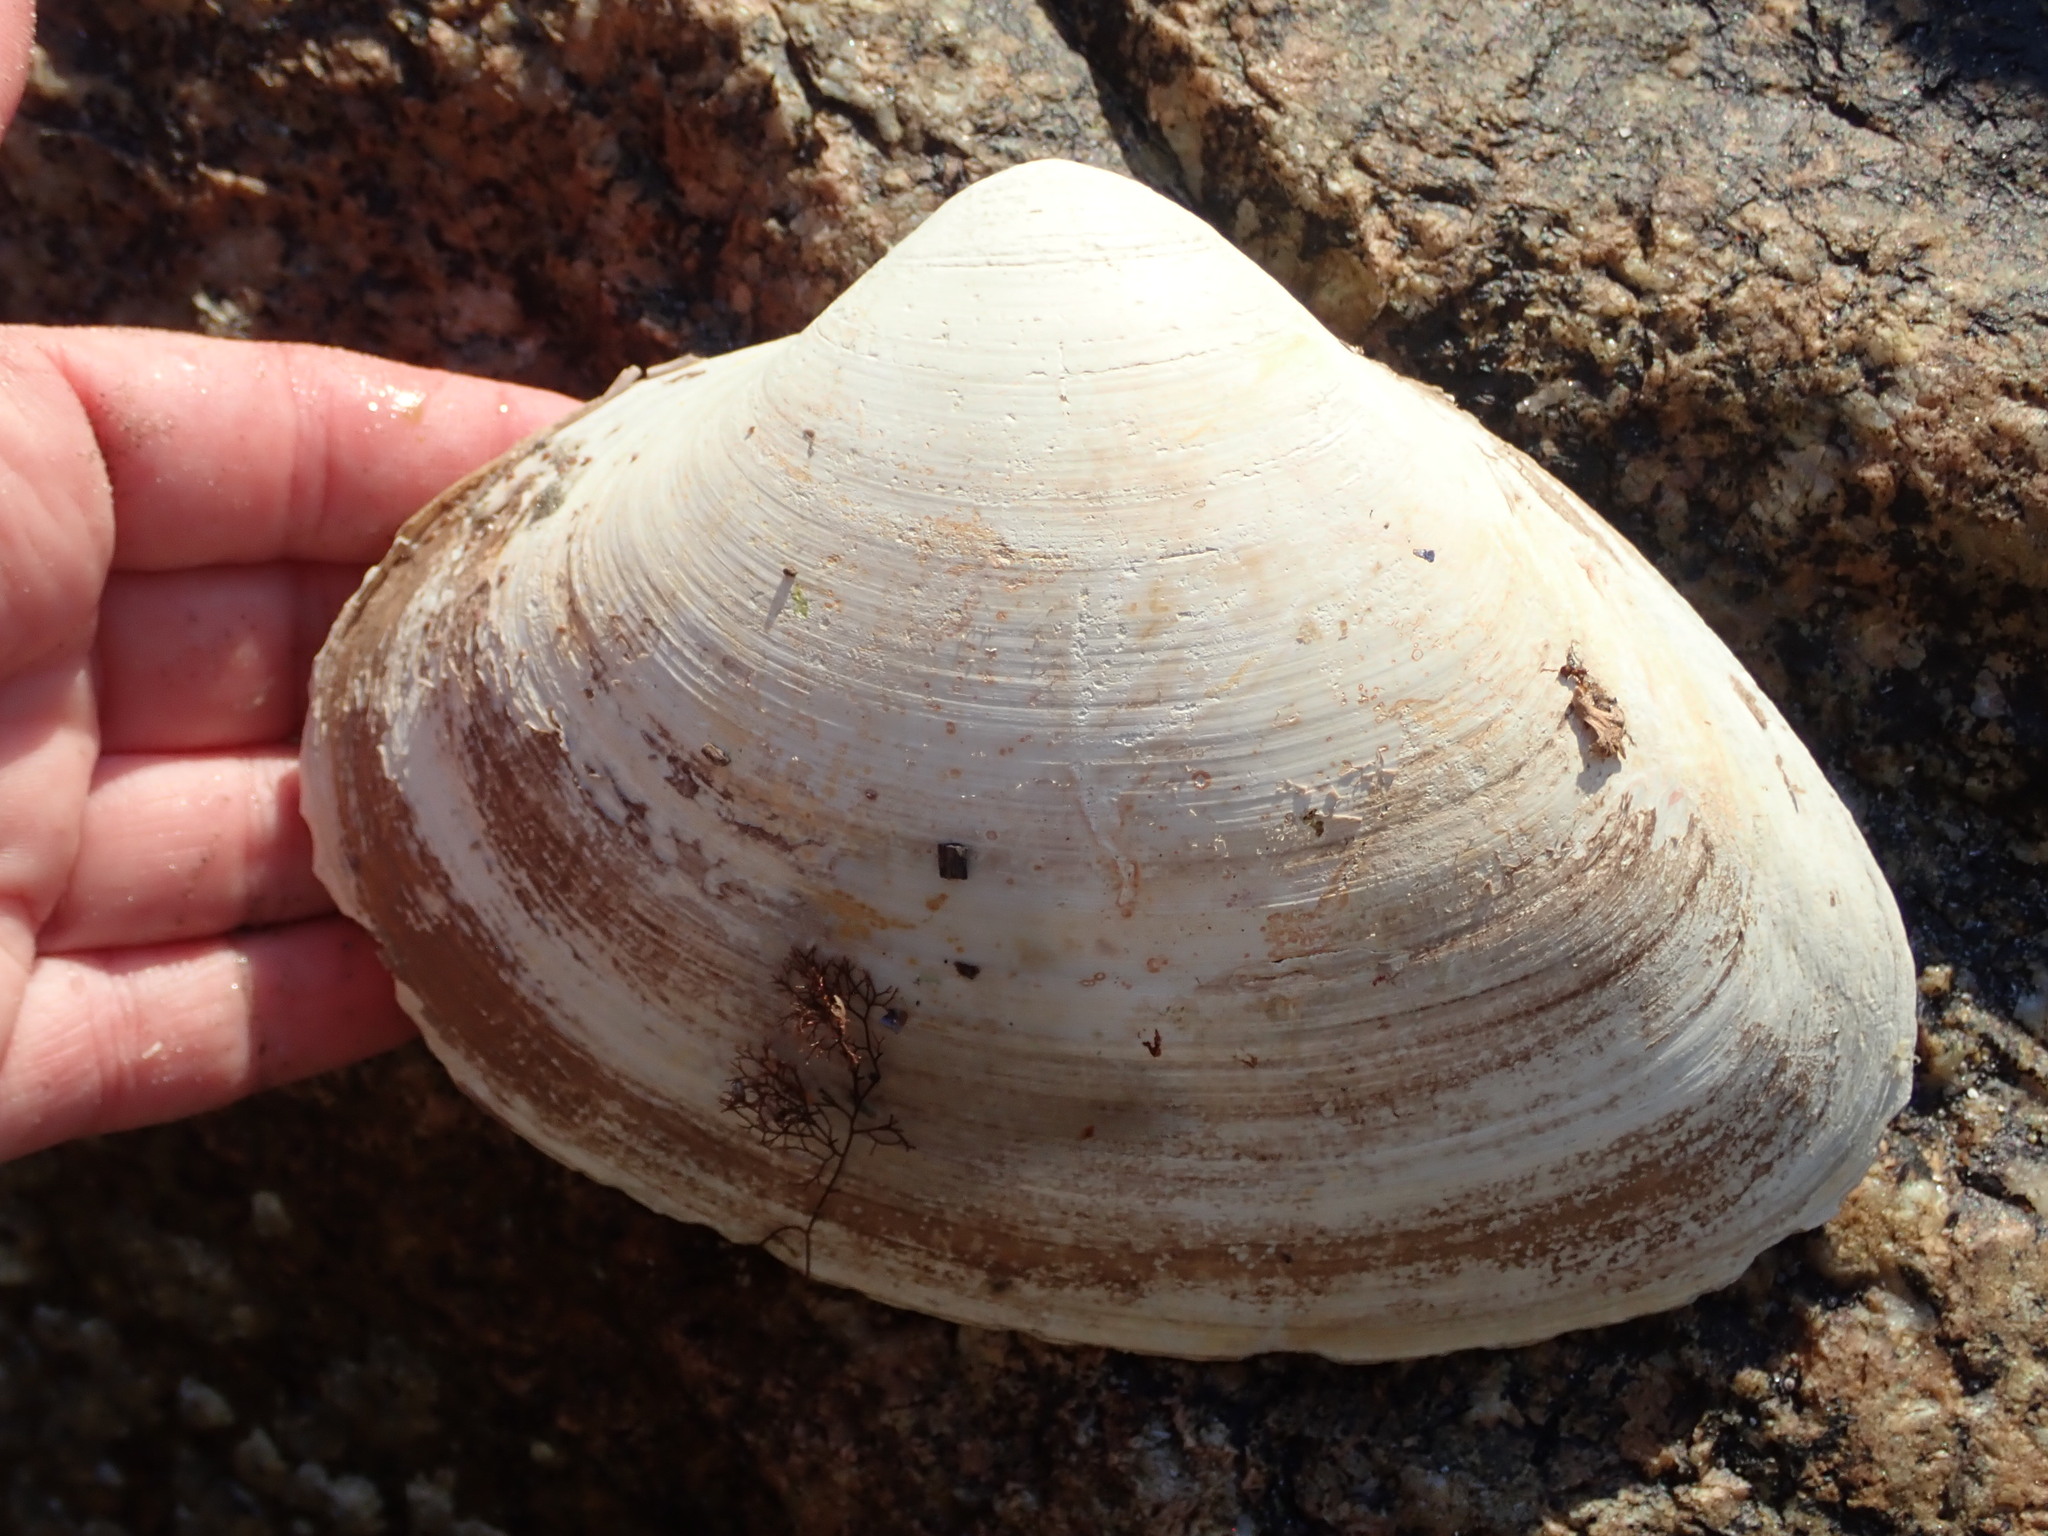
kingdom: Animalia
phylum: Mollusca
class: Bivalvia
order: Venerida
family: Mactridae
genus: Spisula
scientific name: Spisula solidissima
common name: Atlantic surf clam
